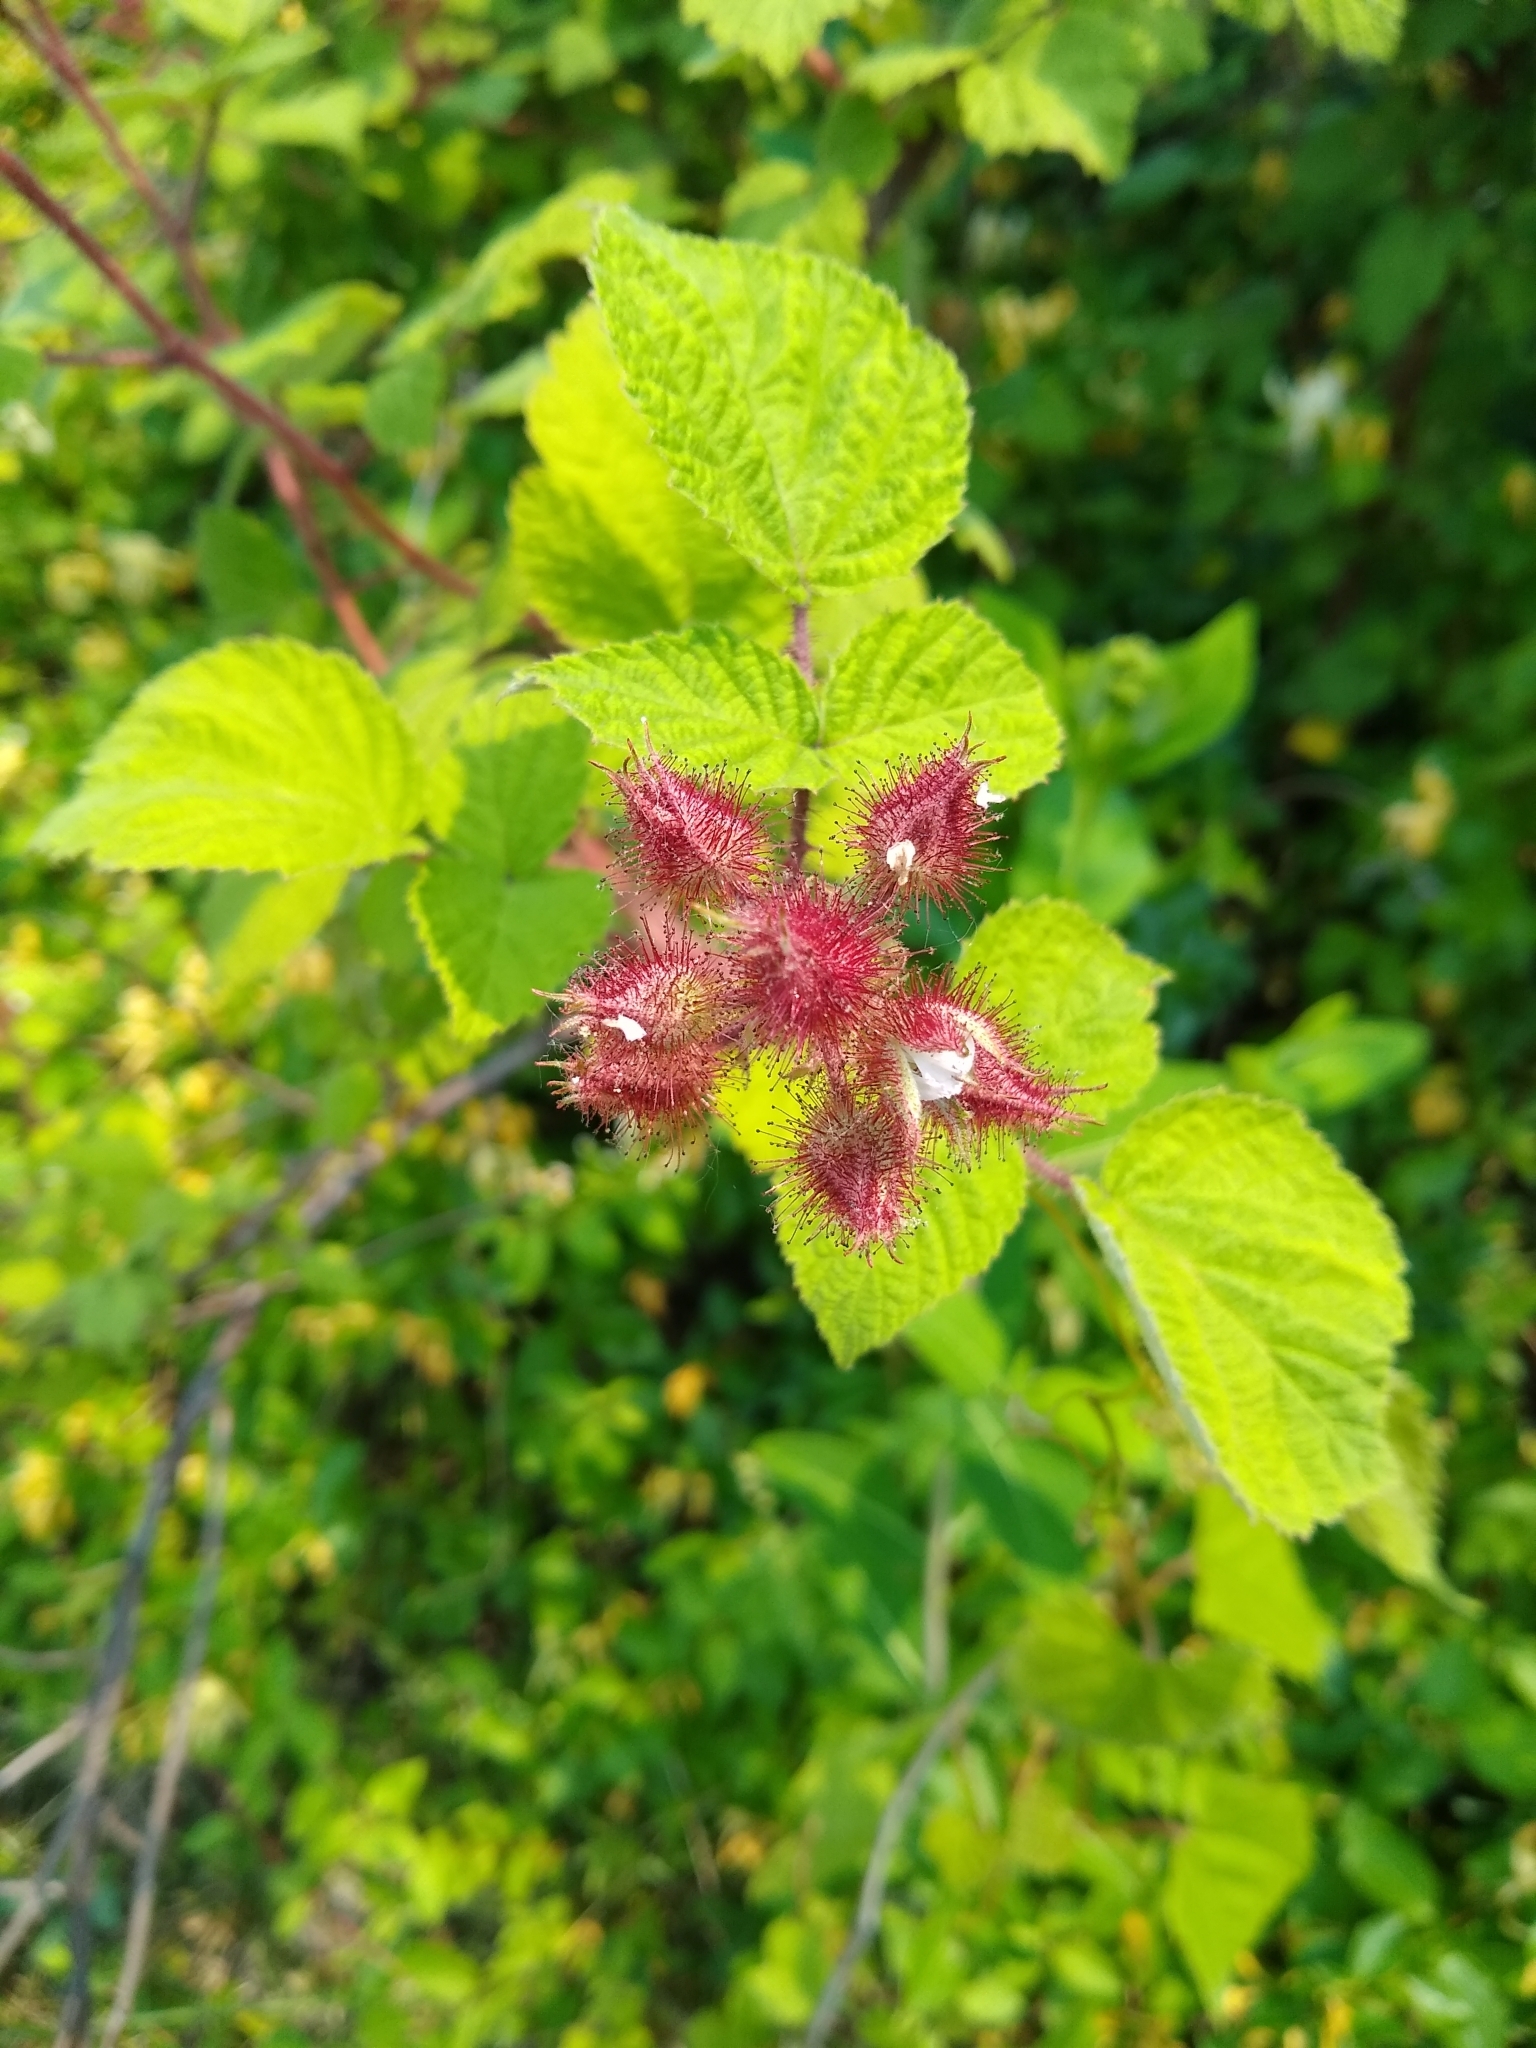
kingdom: Plantae
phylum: Tracheophyta
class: Magnoliopsida
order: Rosales
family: Rosaceae
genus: Rubus
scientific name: Rubus phoenicolasius
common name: Japanese wineberry
